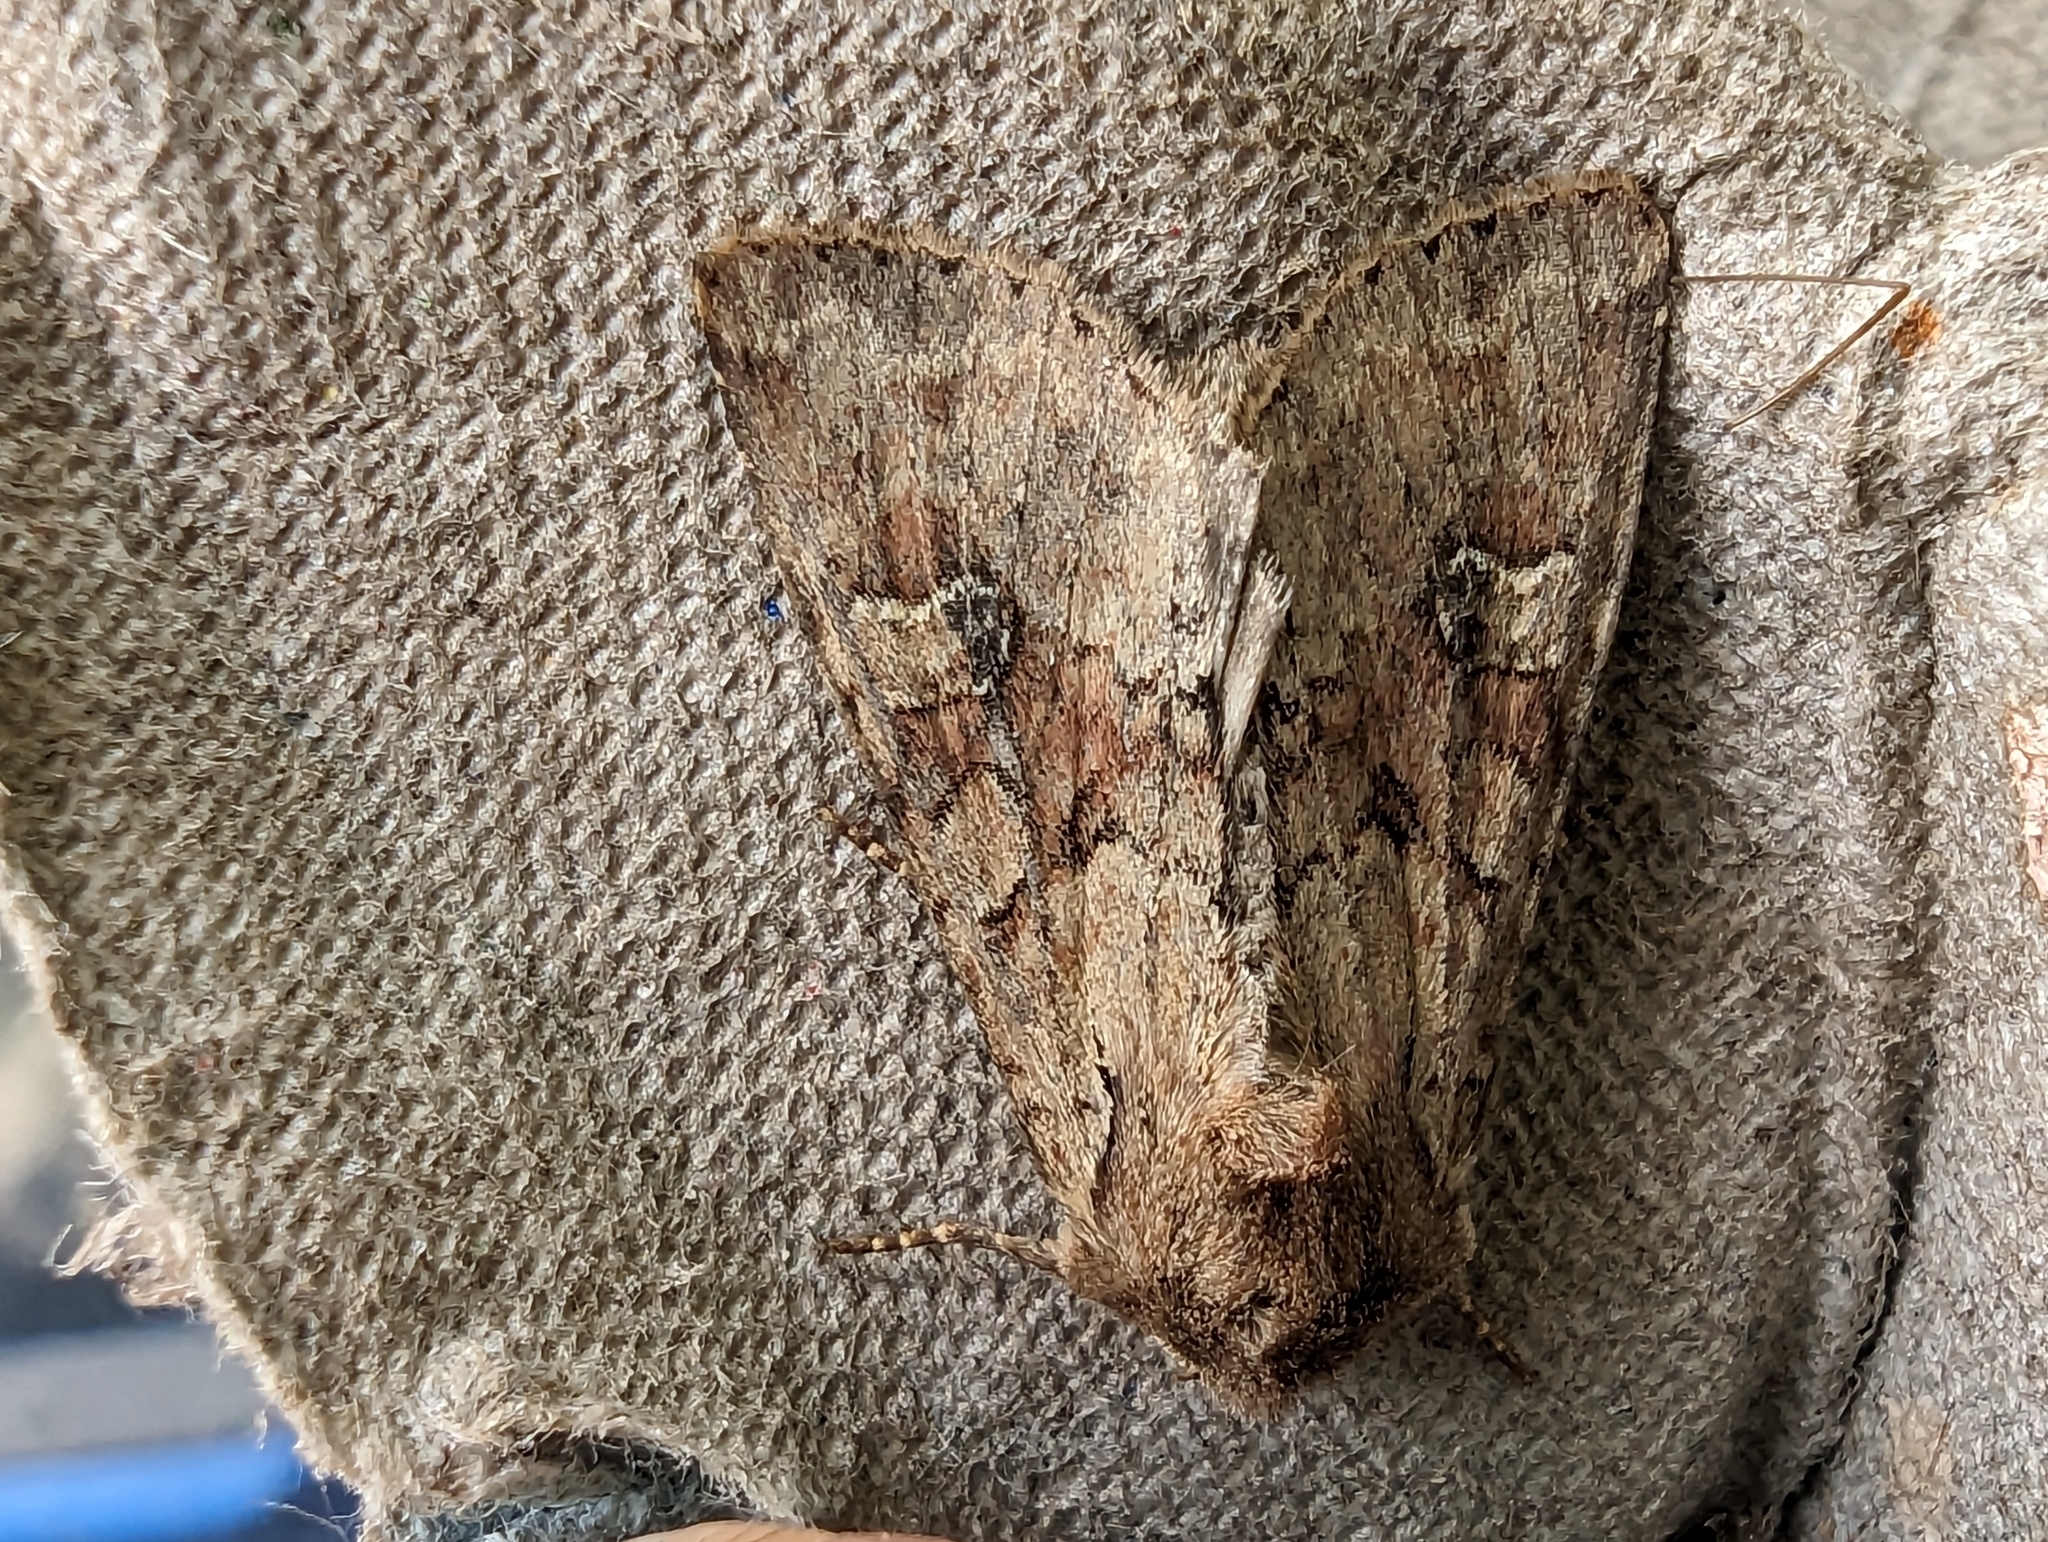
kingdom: Animalia
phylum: Arthropoda
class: Insecta
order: Lepidoptera
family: Noctuidae
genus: Apamea
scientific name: Apamea sordens
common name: Rustic shoulder-knot
